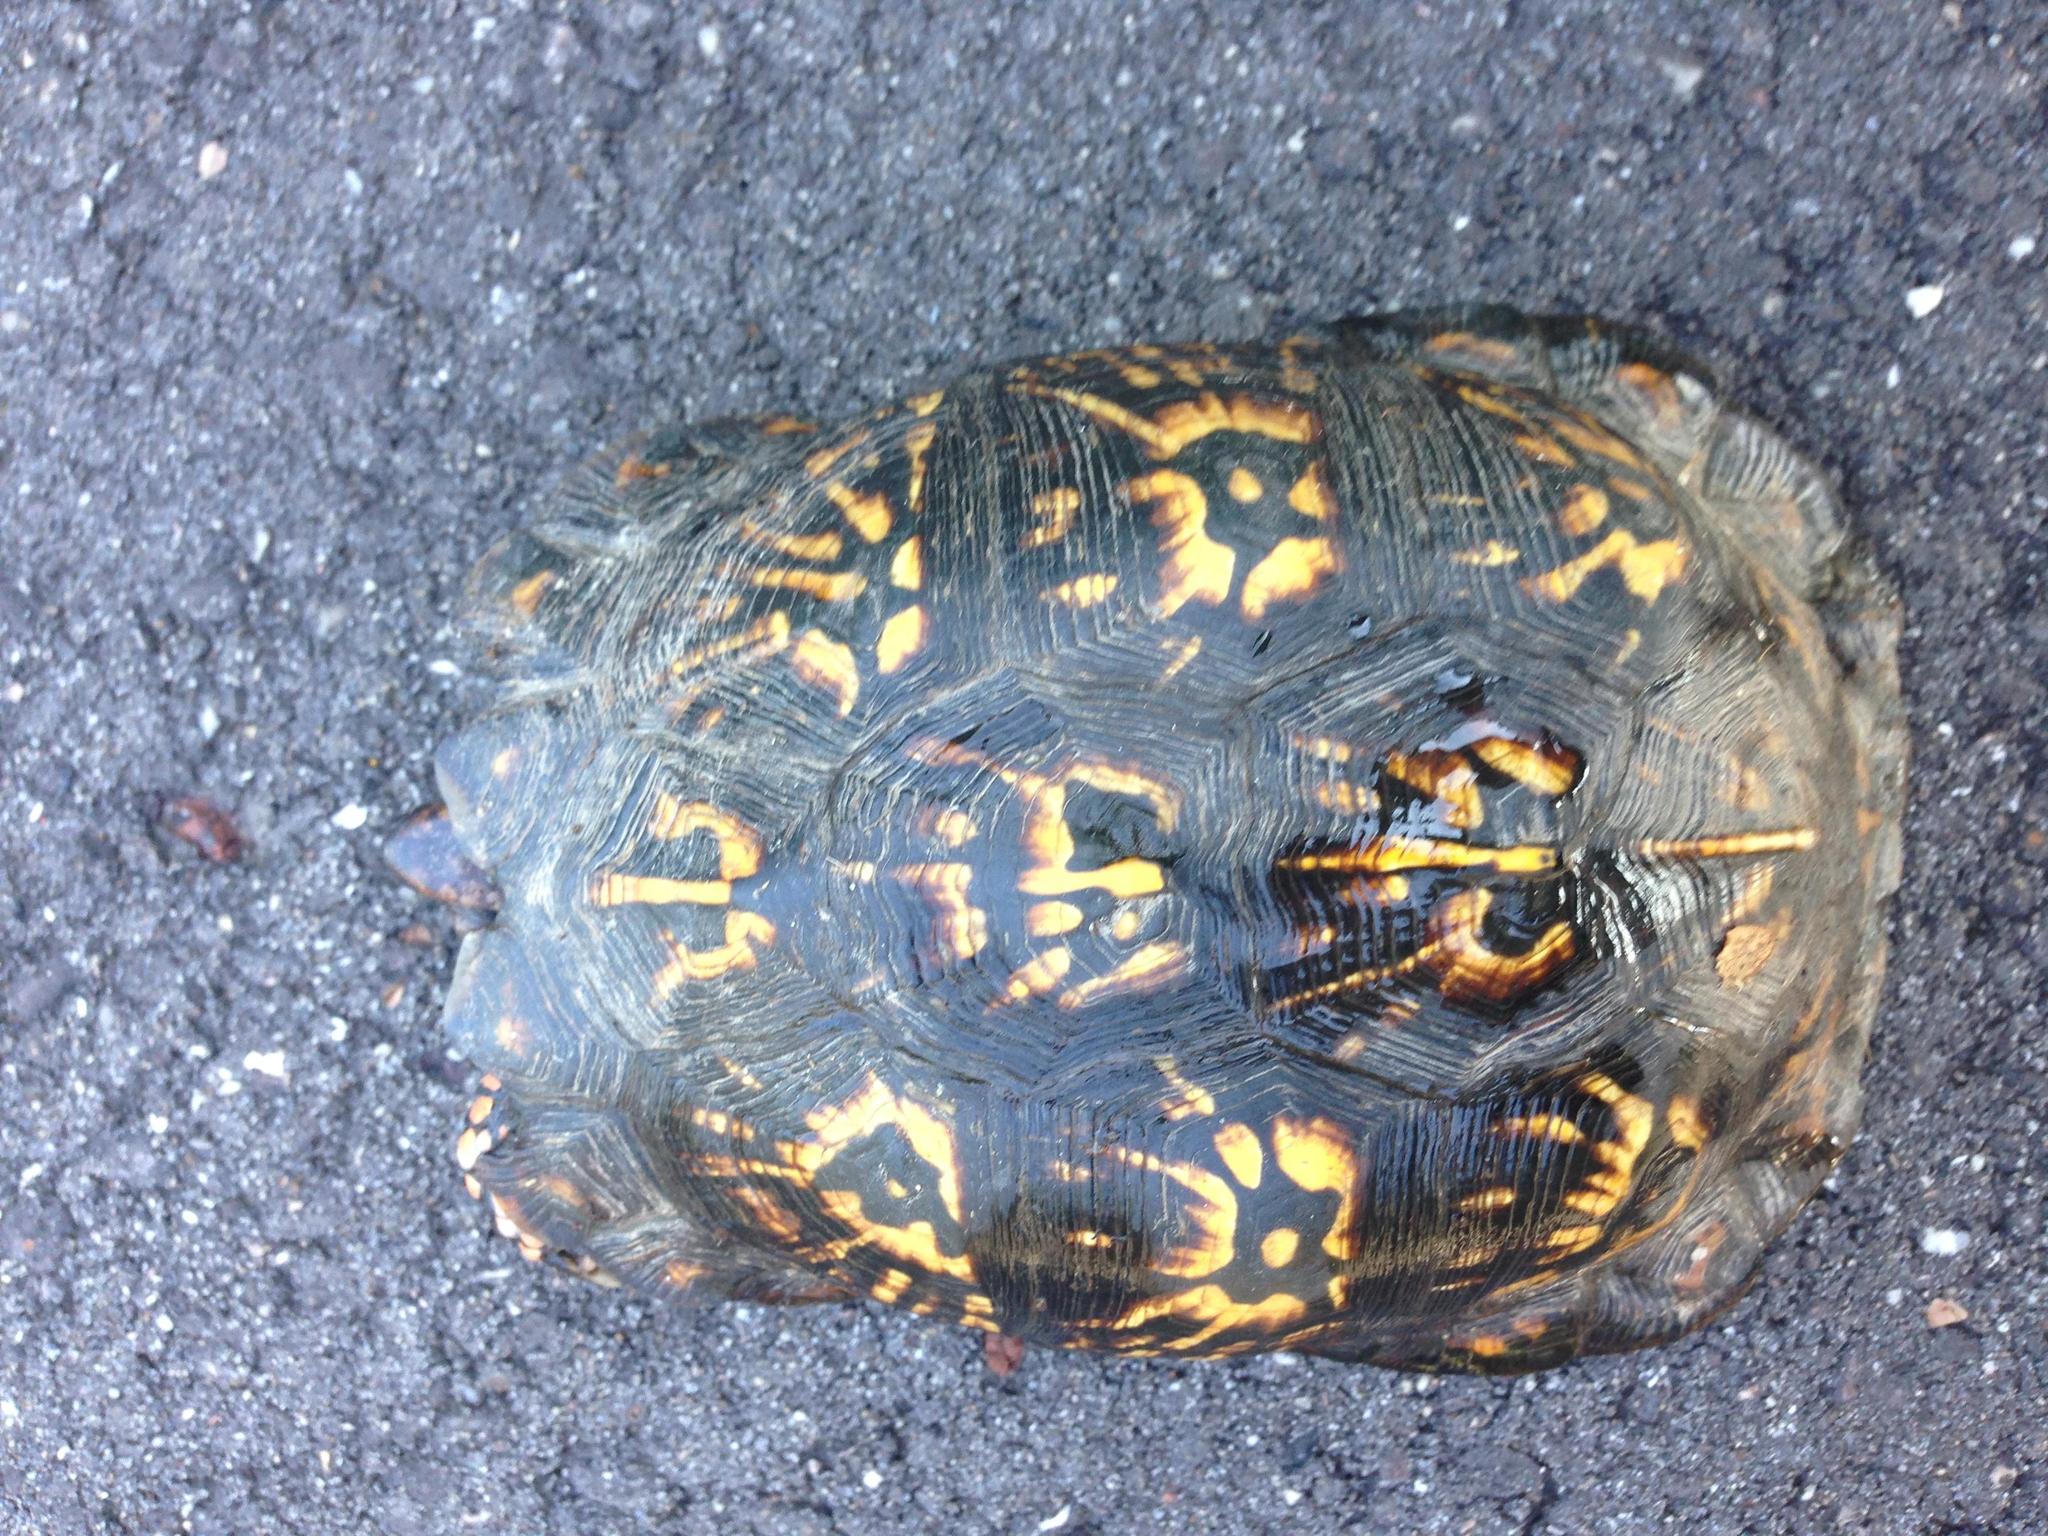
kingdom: Animalia
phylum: Chordata
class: Testudines
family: Emydidae
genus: Terrapene
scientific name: Terrapene carolina
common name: Common box turtle
